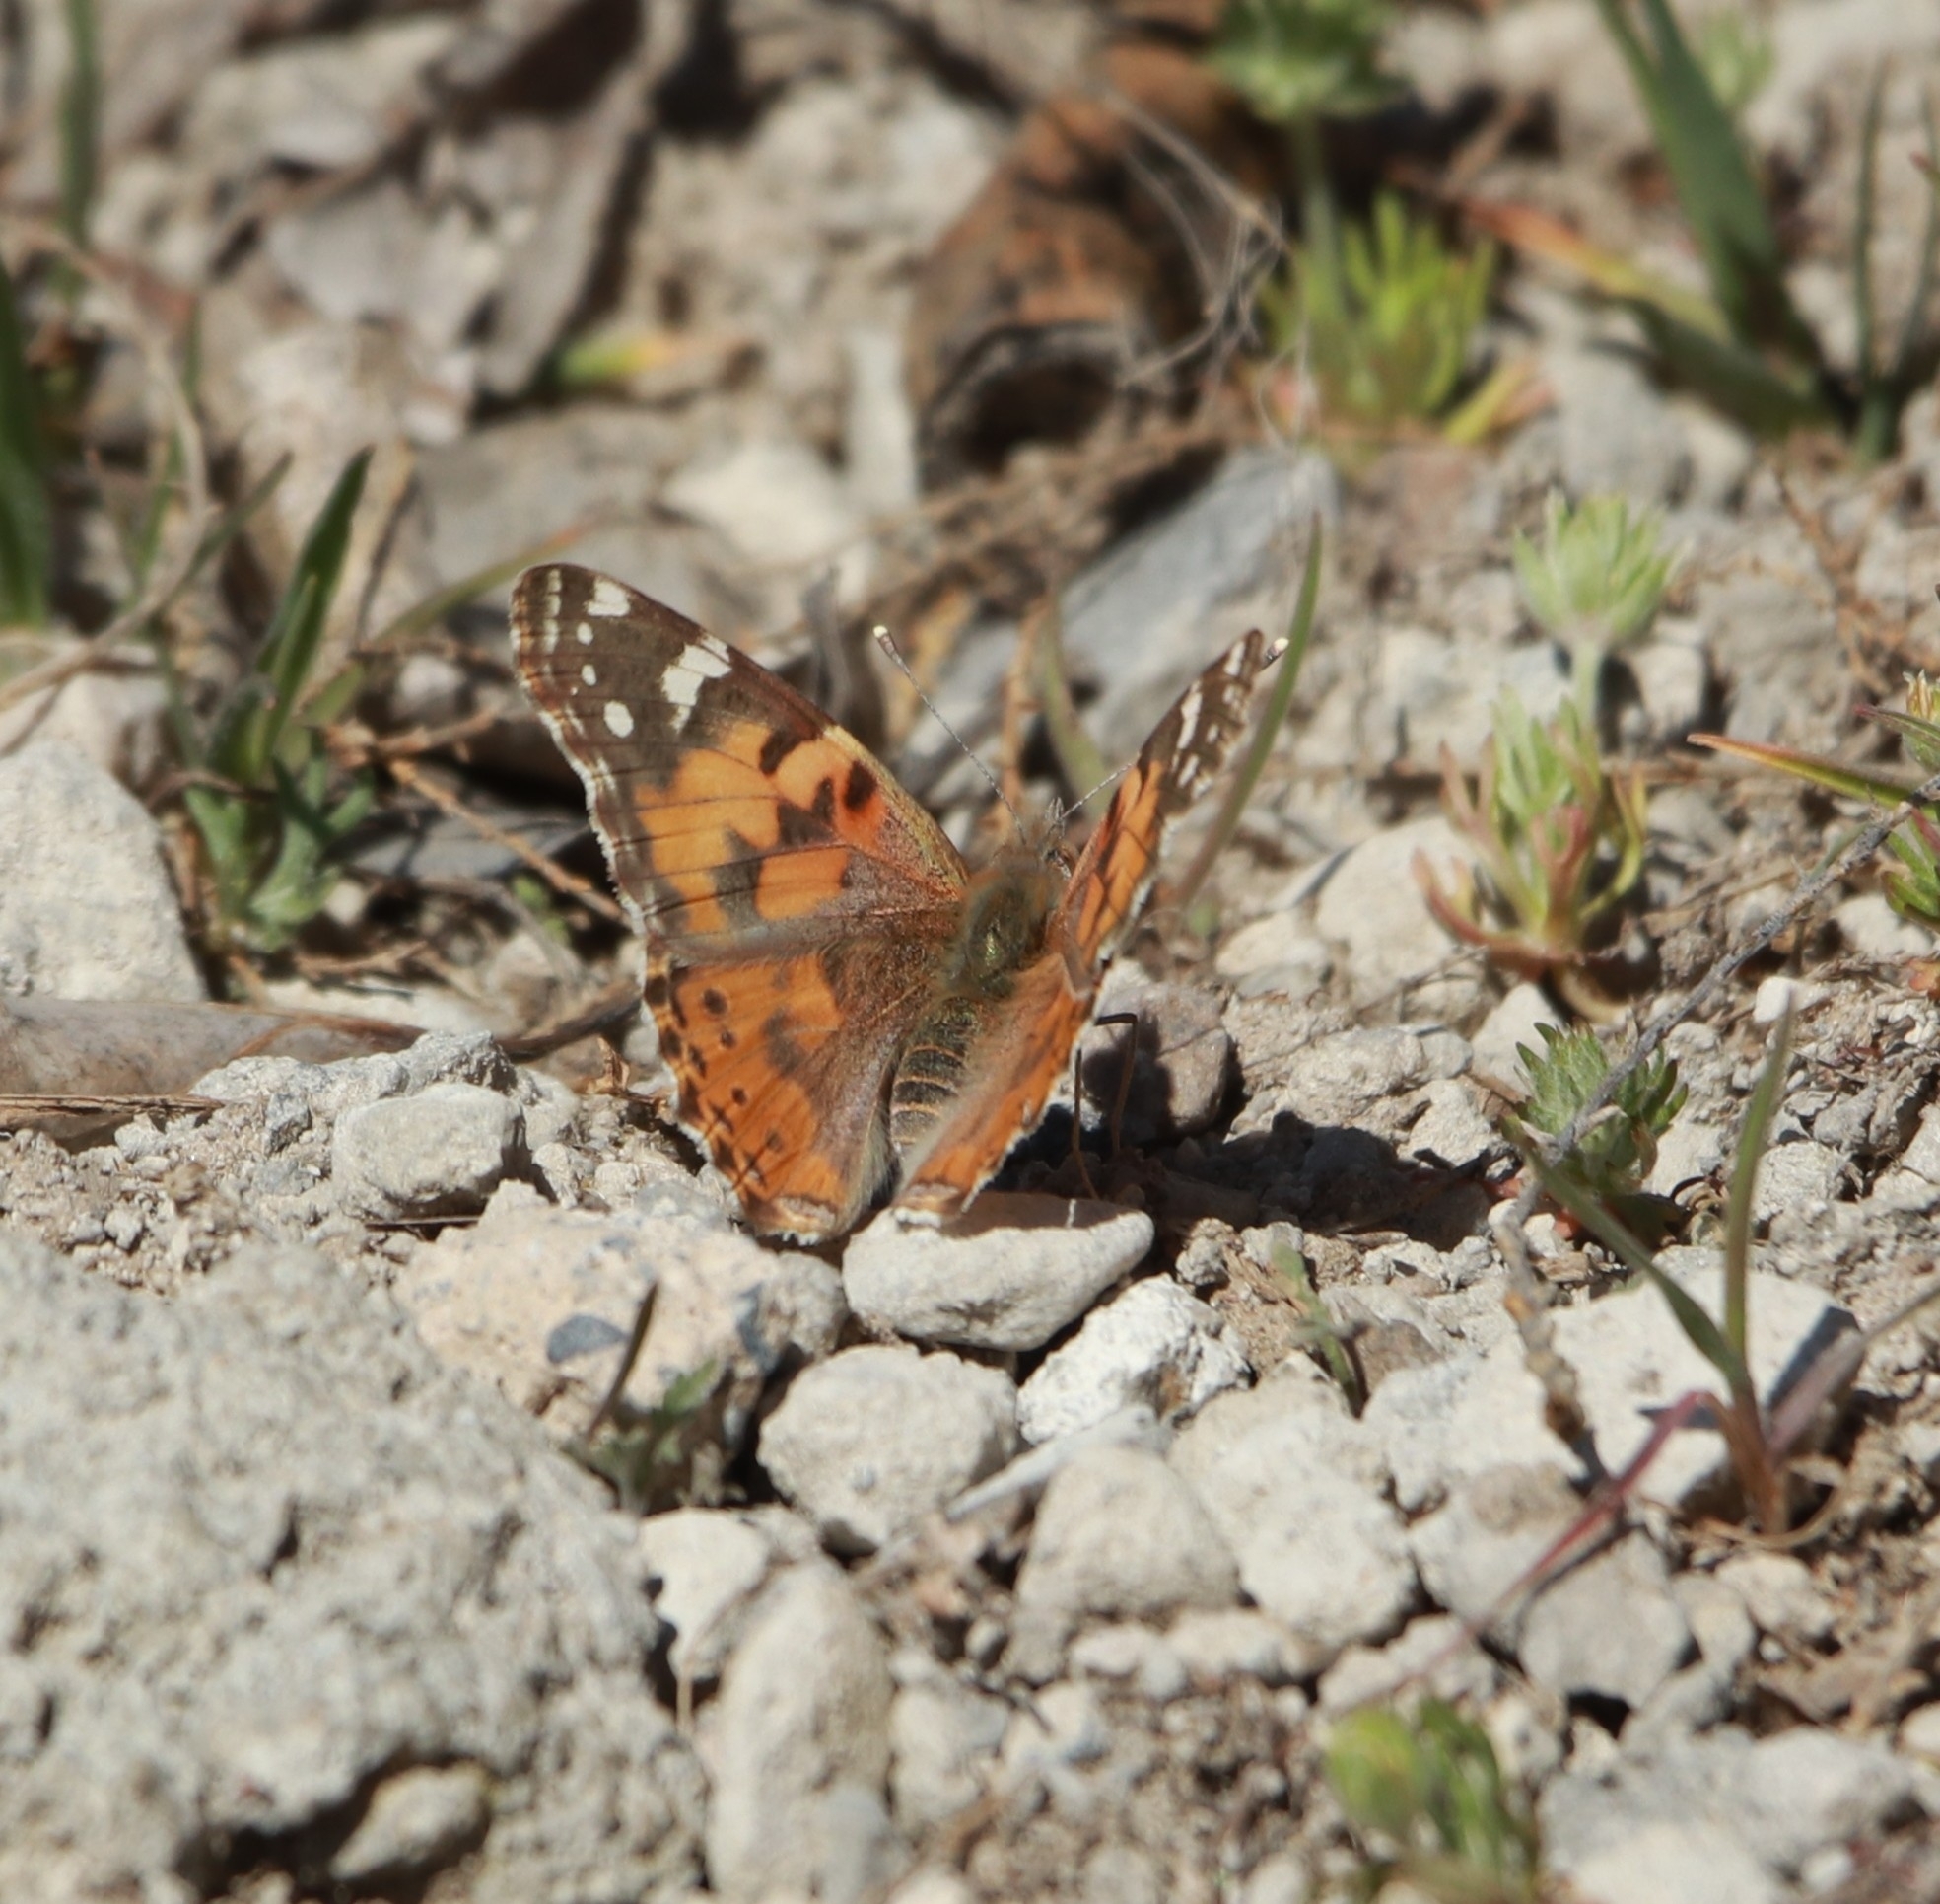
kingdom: Animalia
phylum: Arthropoda
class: Insecta
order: Lepidoptera
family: Nymphalidae
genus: Vanessa
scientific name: Vanessa cardui
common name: Painted lady
